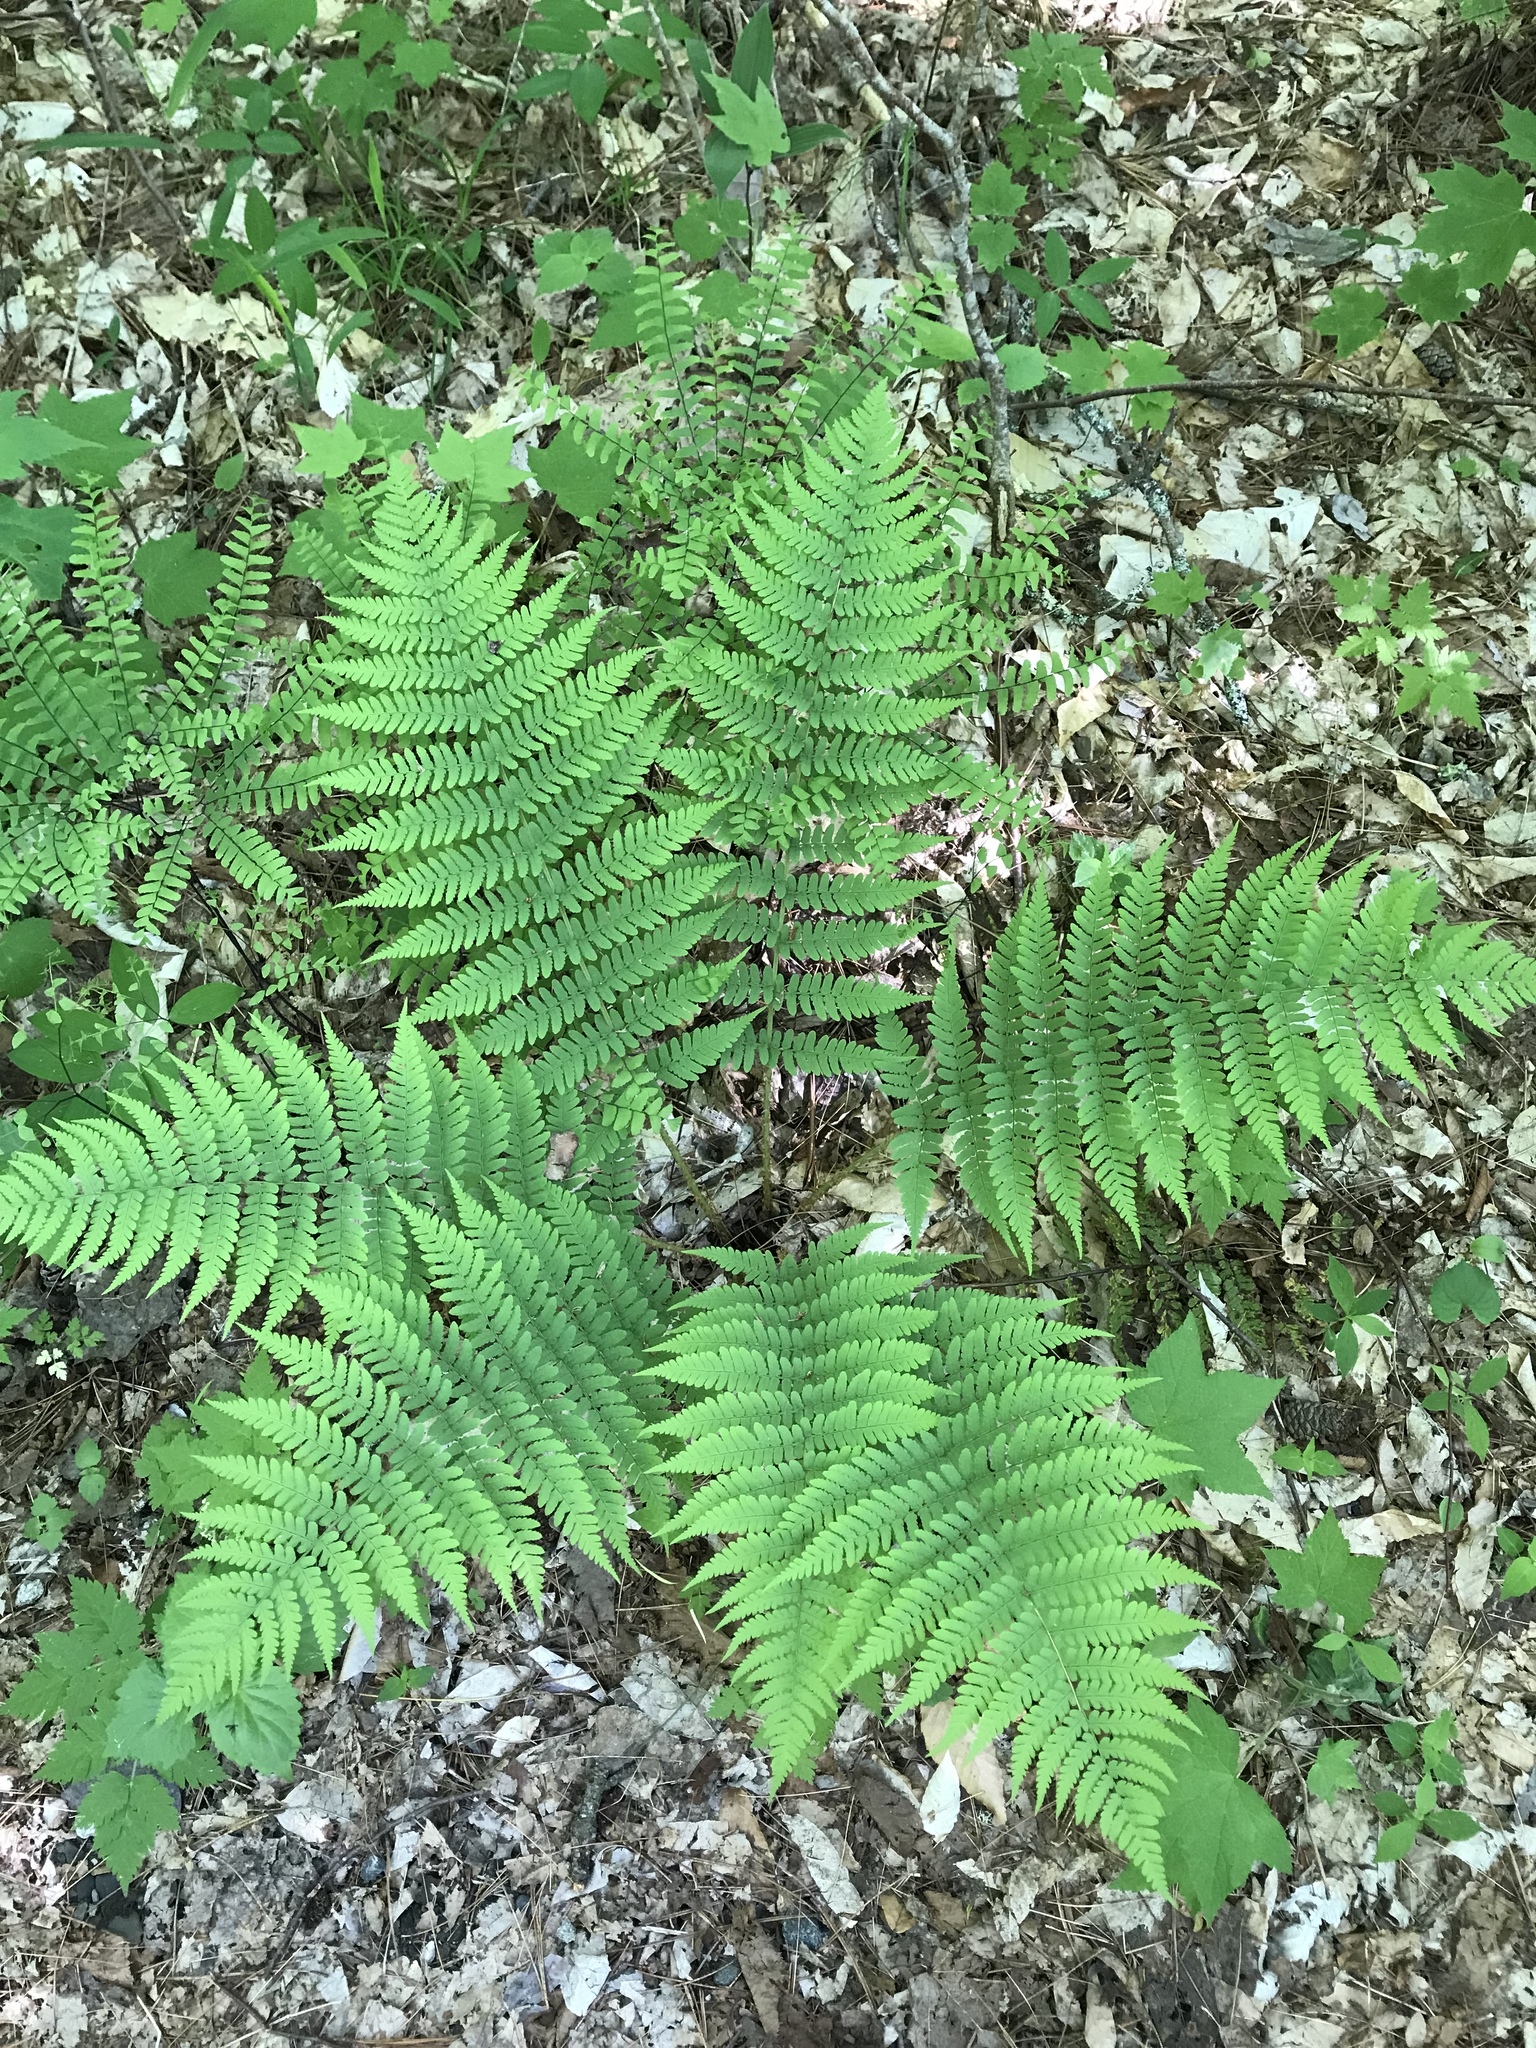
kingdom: Plantae
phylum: Tracheophyta
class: Polypodiopsida
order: Polypodiales
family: Dryopteridaceae
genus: Dryopteris
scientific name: Dryopteris marginalis
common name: Marginal wood fern
